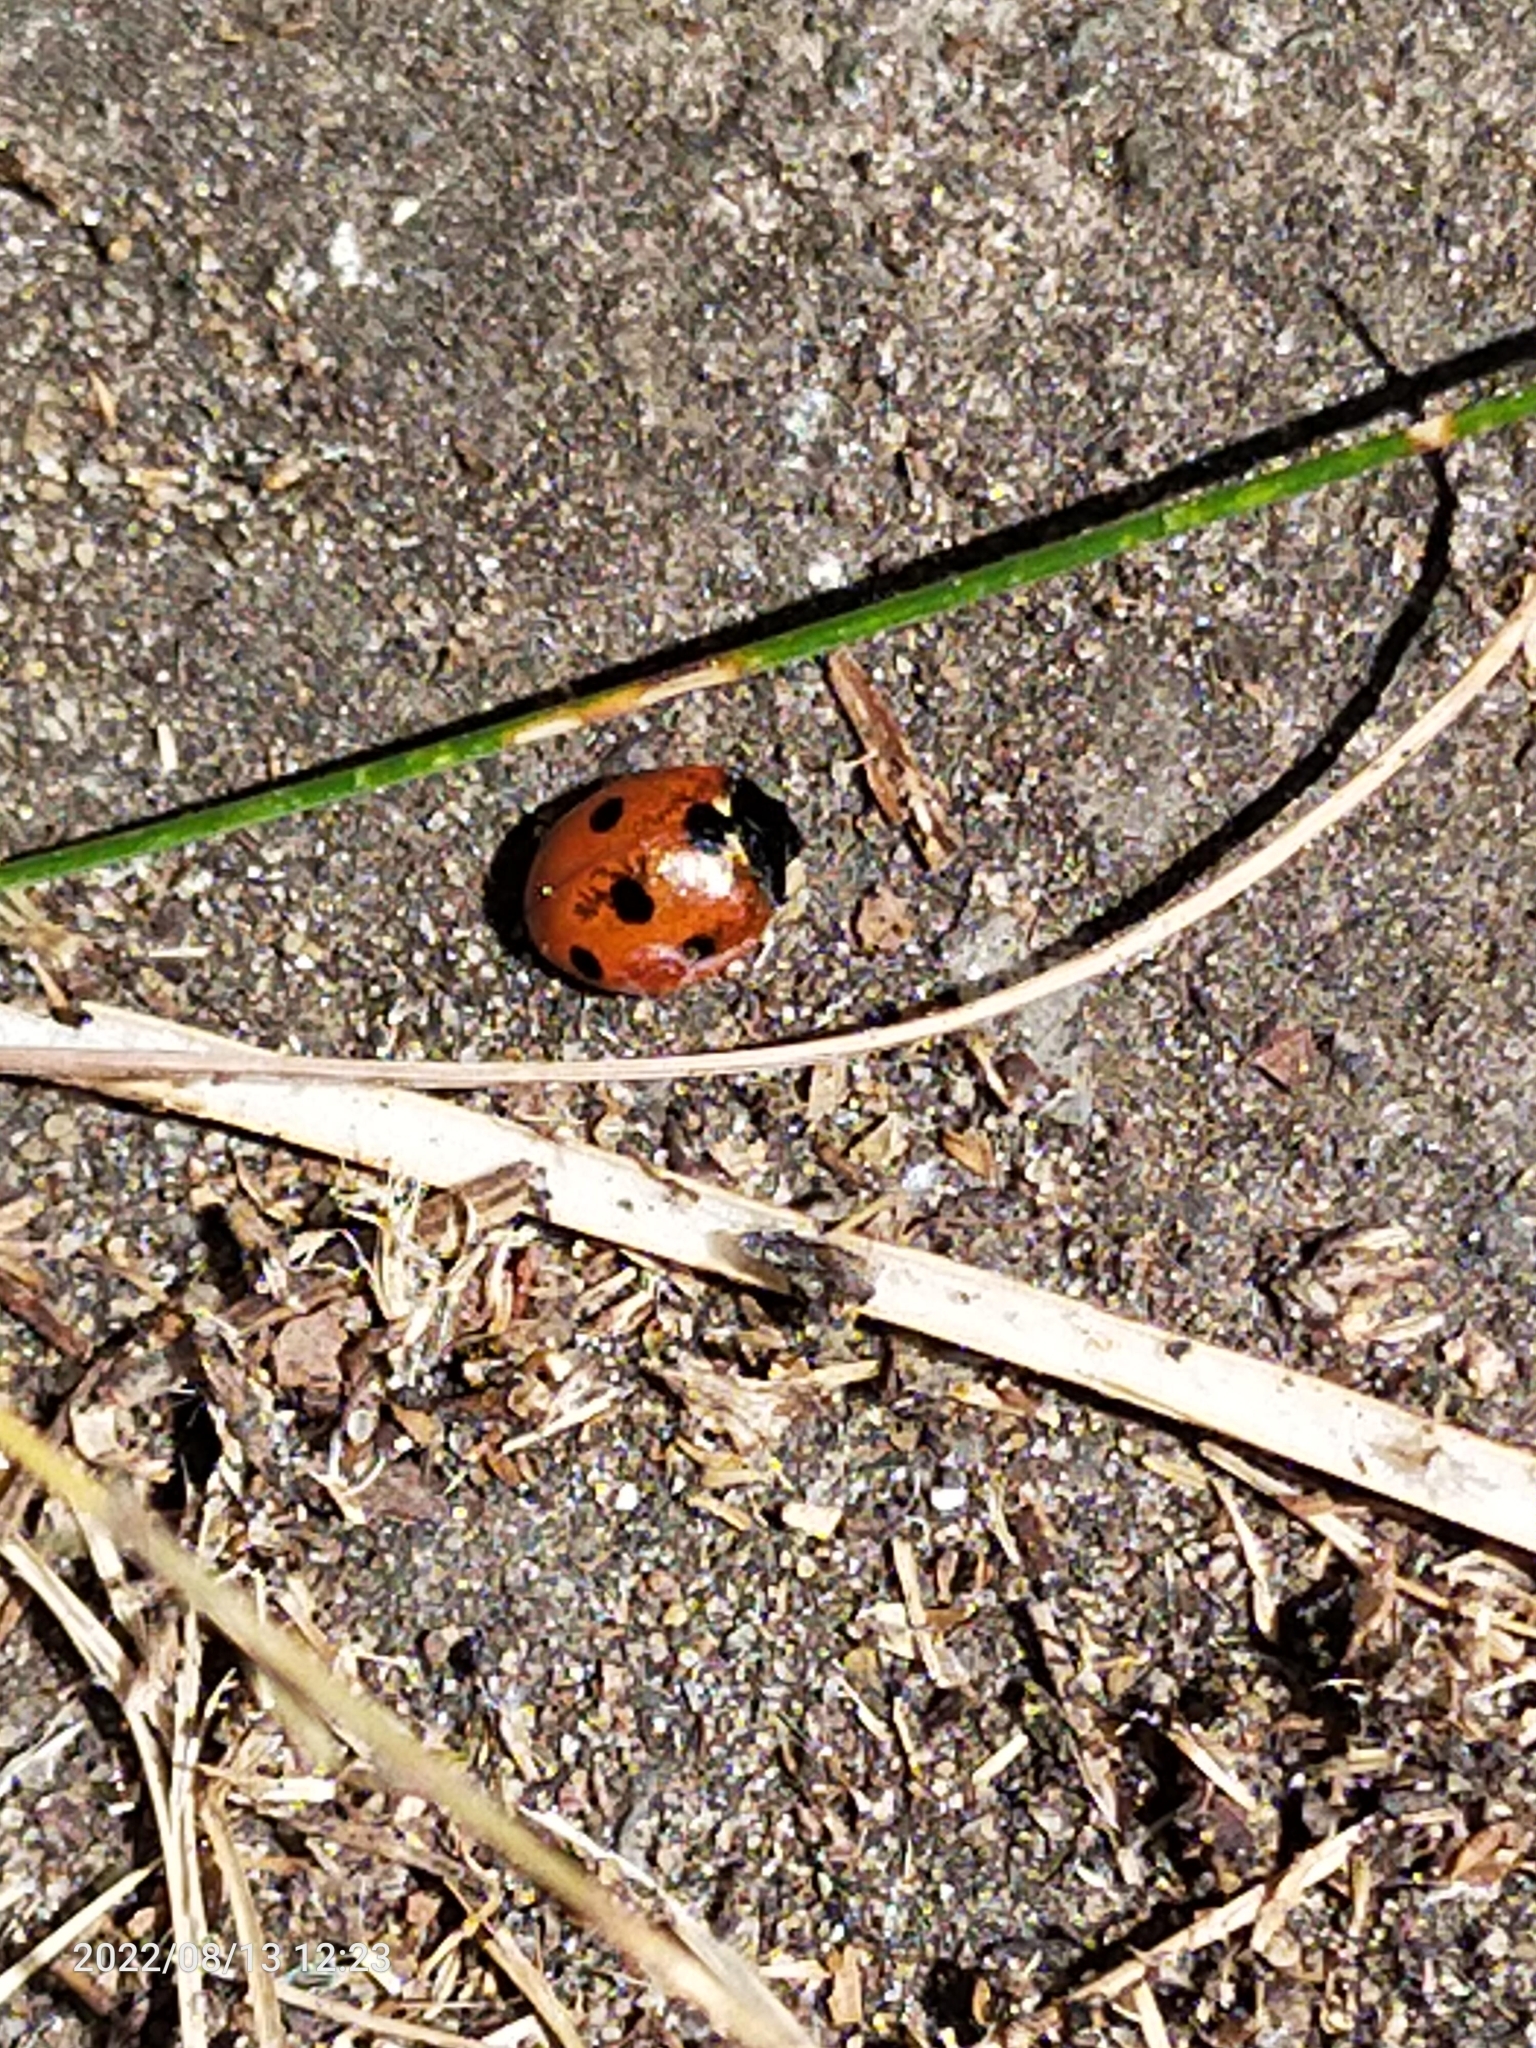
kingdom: Animalia
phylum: Arthropoda
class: Insecta
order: Coleoptera
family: Coccinellidae
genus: Coccinella
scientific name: Coccinella septempunctata
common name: Sevenspotted lady beetle
